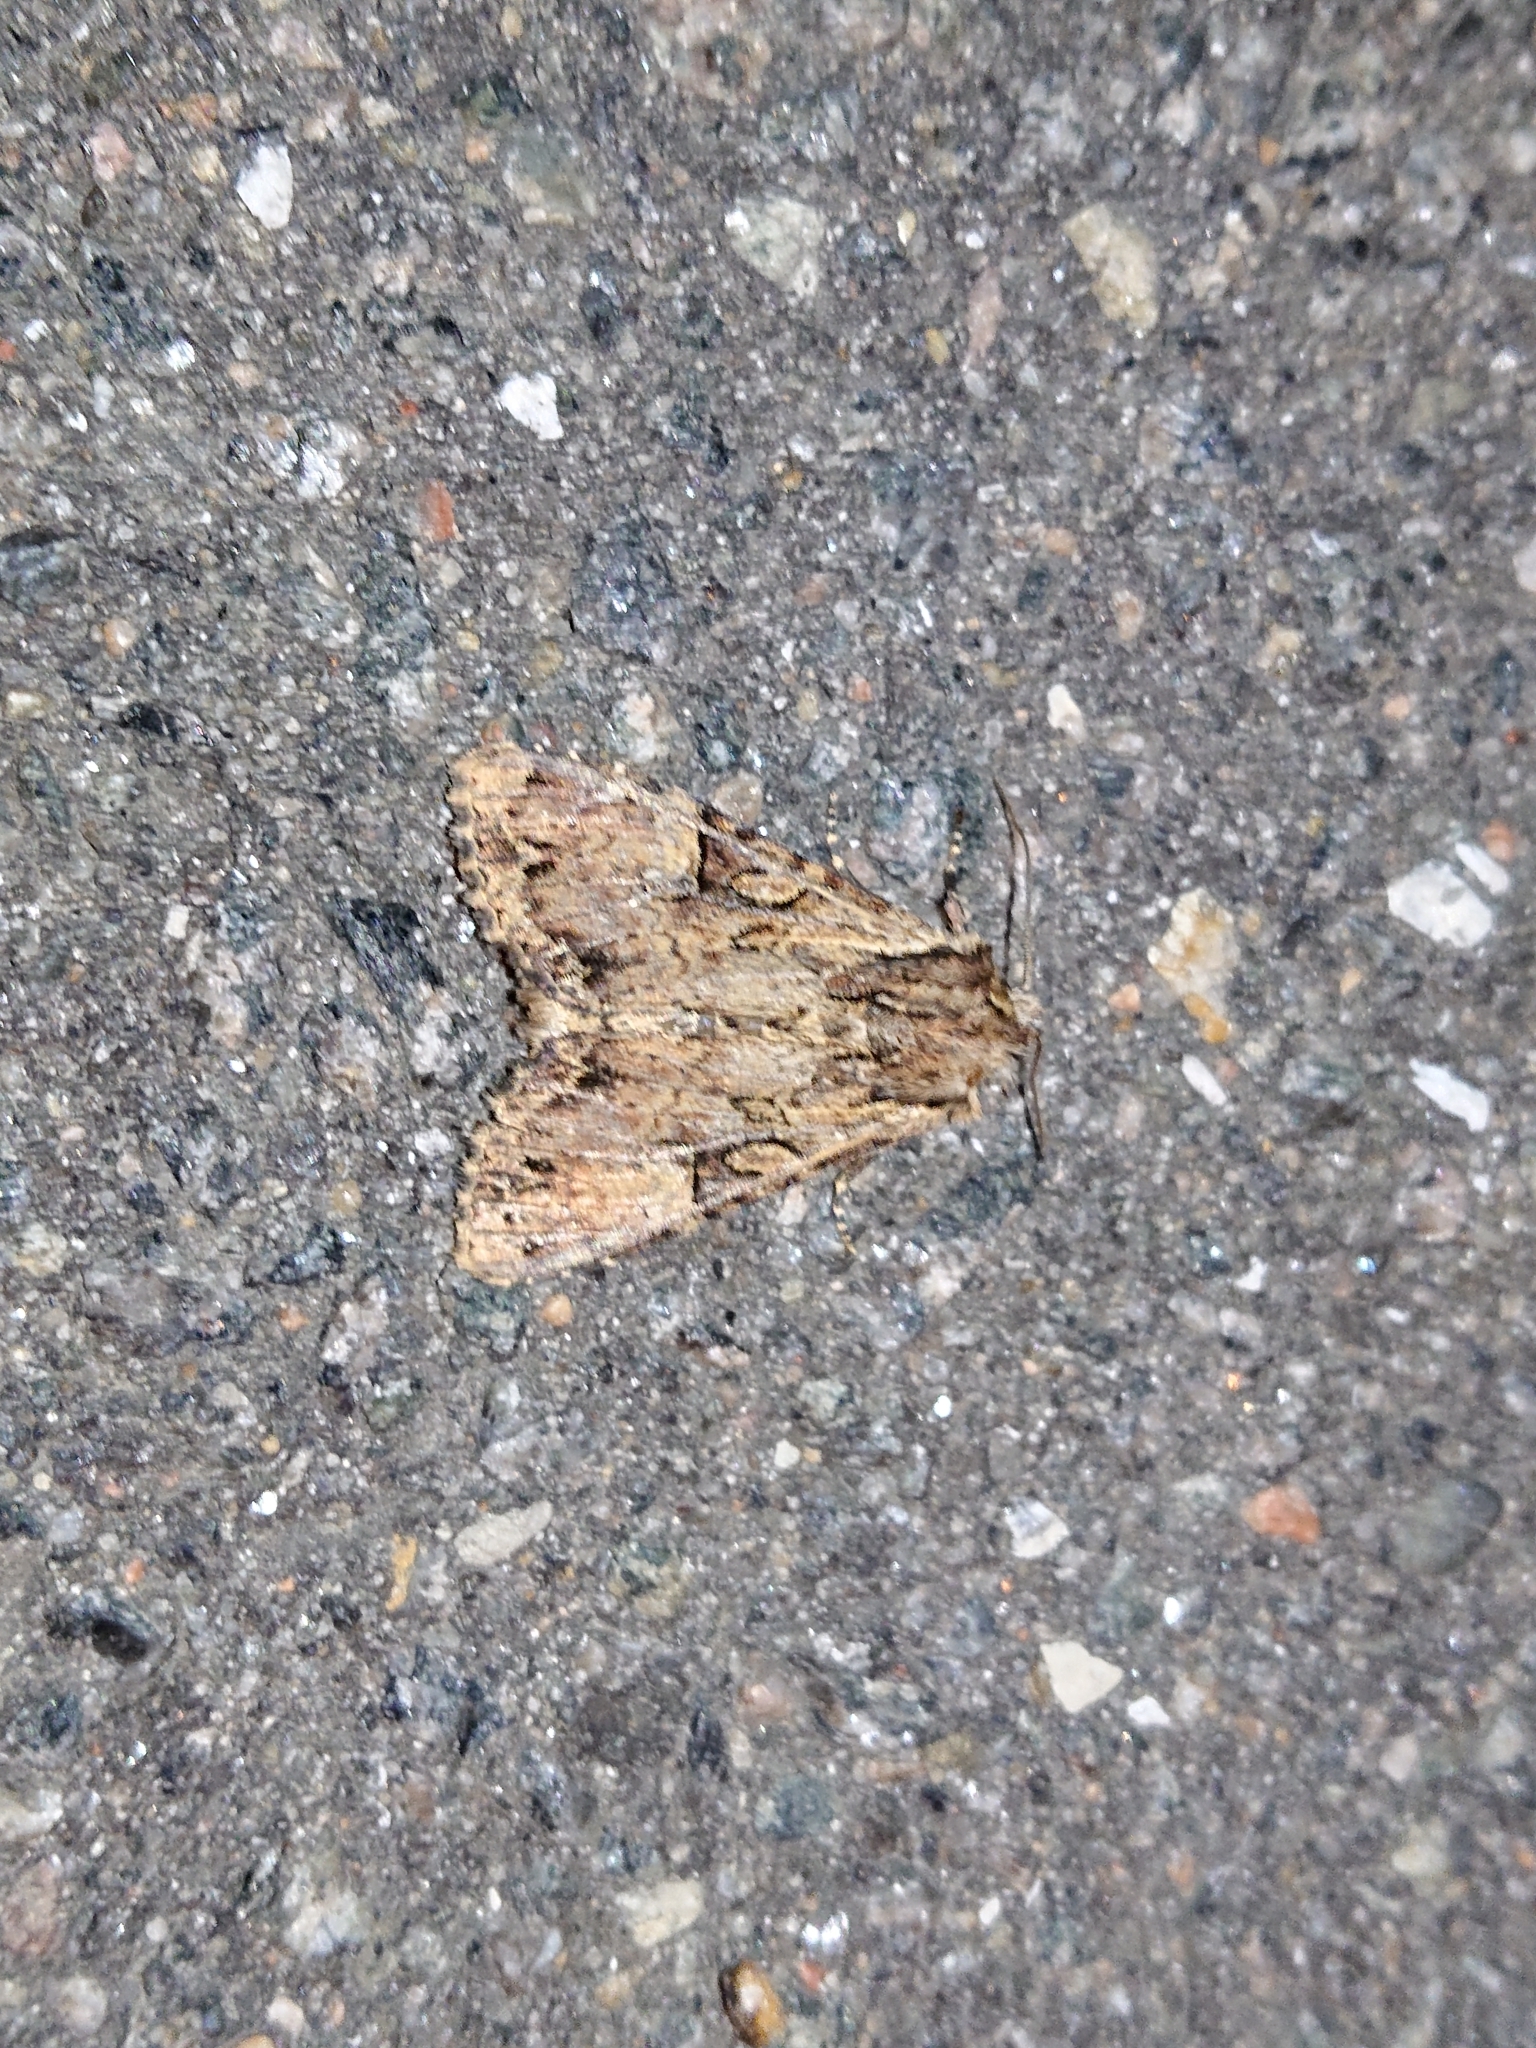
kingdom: Animalia
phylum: Arthropoda
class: Insecta
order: Lepidoptera
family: Noctuidae
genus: Apamea
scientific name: Apamea epomidion
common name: Clouded brindle
